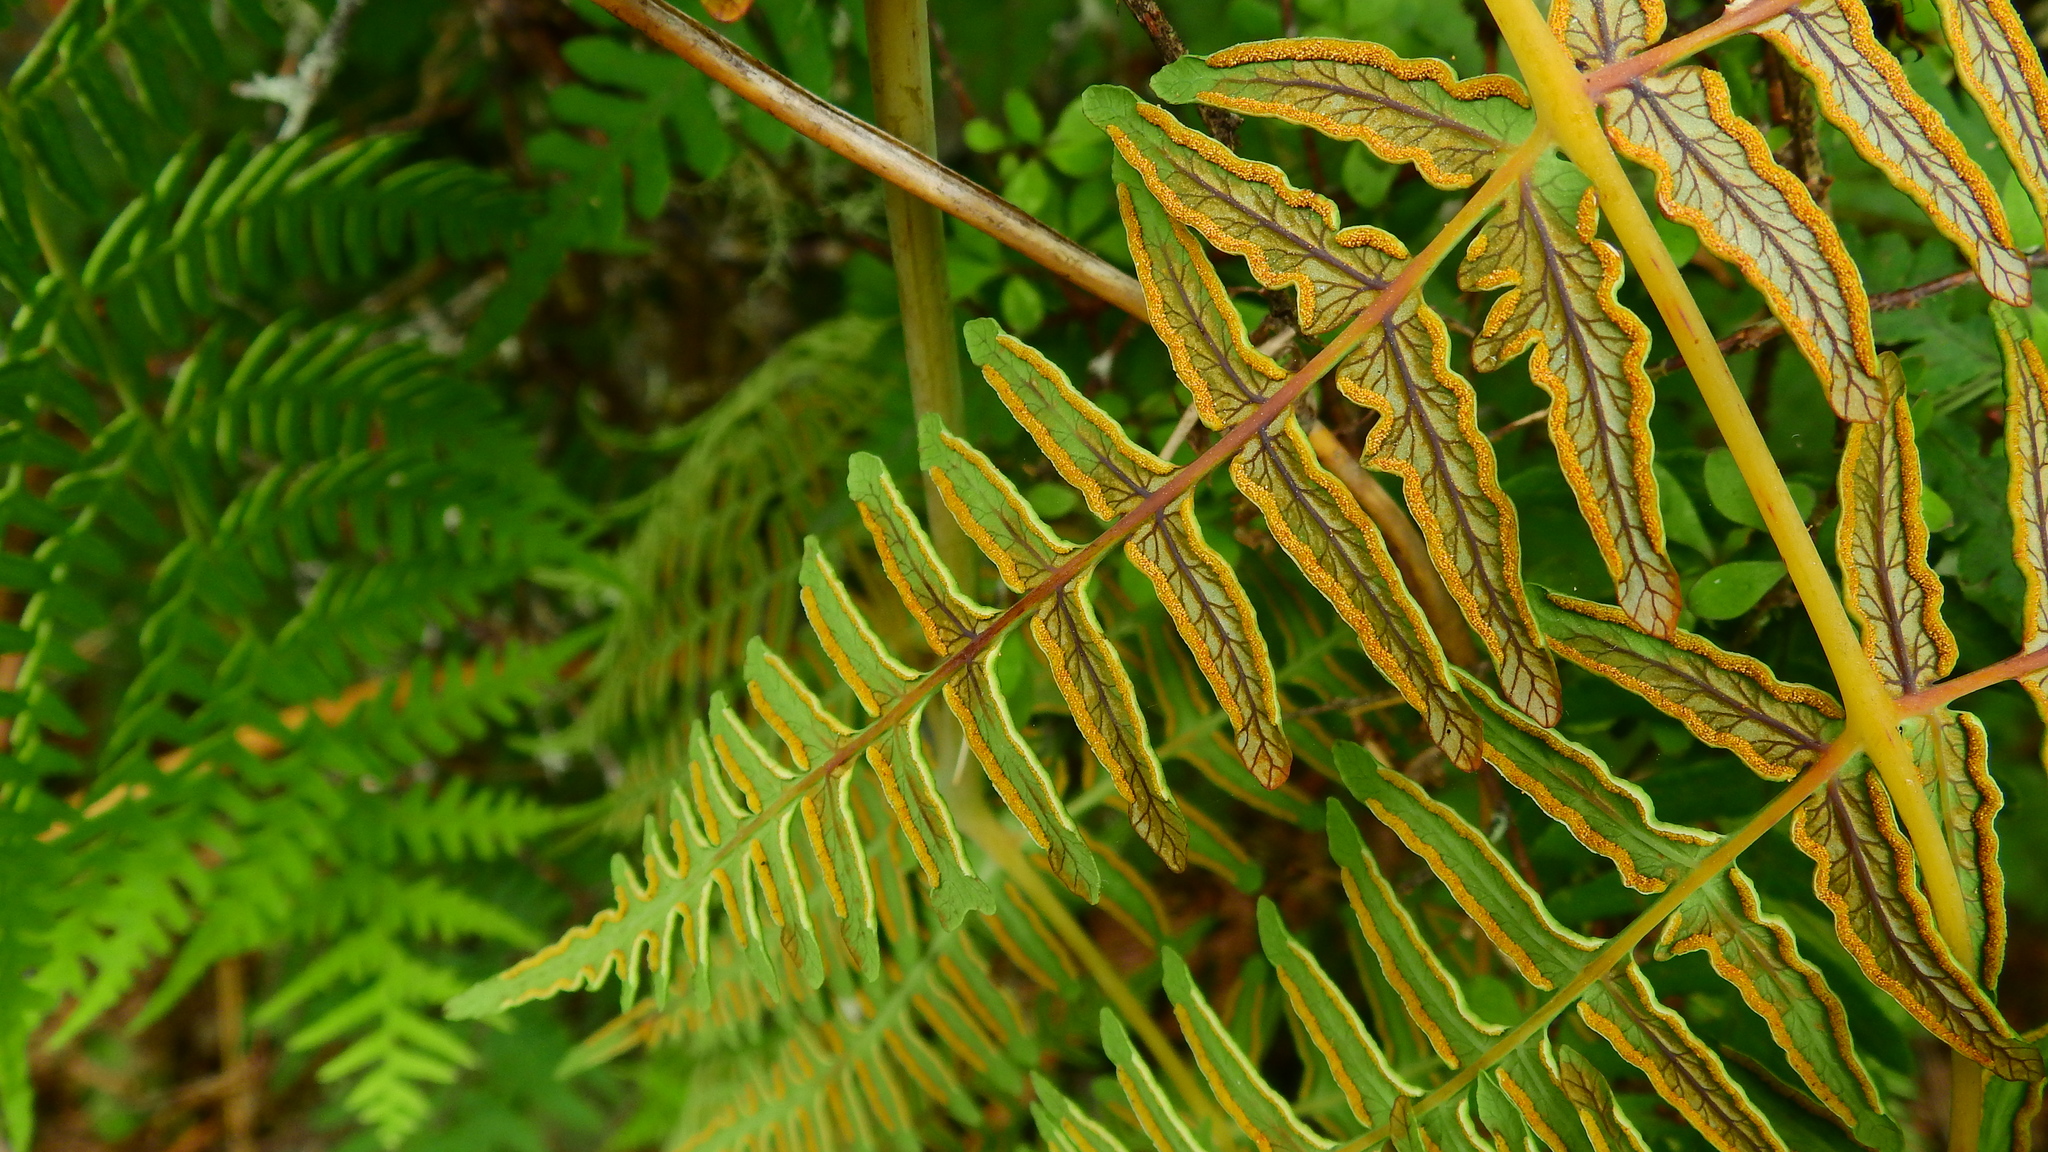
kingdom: Plantae
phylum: Tracheophyta
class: Polypodiopsida
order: Polypodiales
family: Dennstaedtiaceae
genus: Histiopteris
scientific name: Histiopteris incisa
